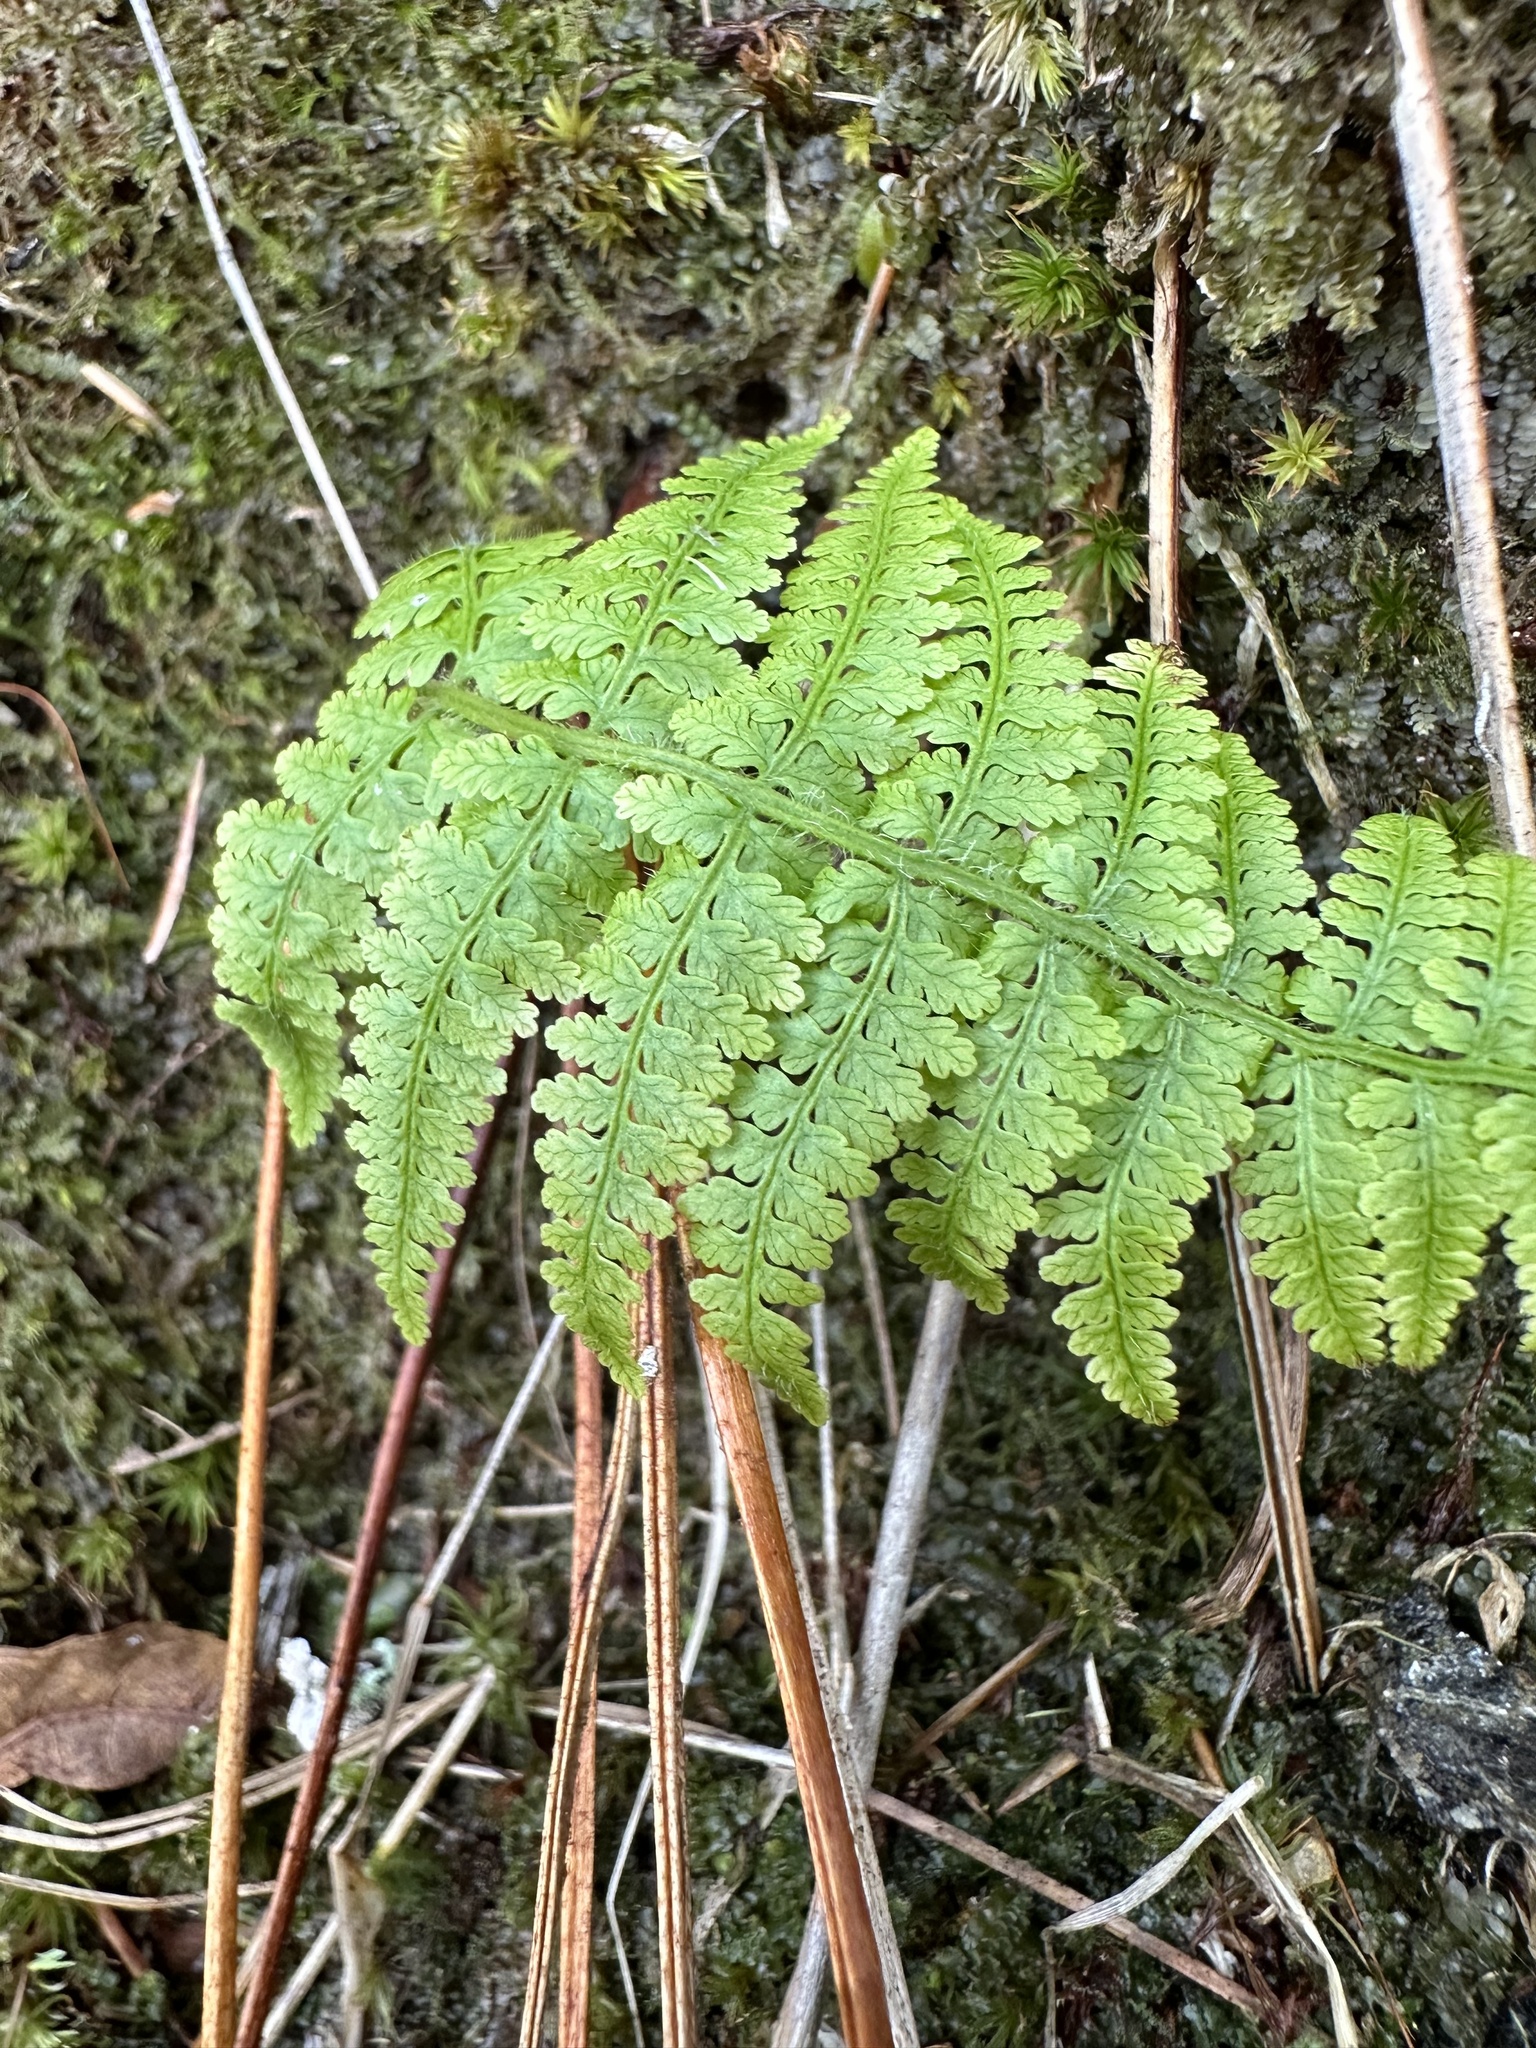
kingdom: Plantae
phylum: Tracheophyta
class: Polypodiopsida
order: Polypodiales
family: Dennstaedtiaceae
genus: Sitobolium
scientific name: Sitobolium punctilobum
